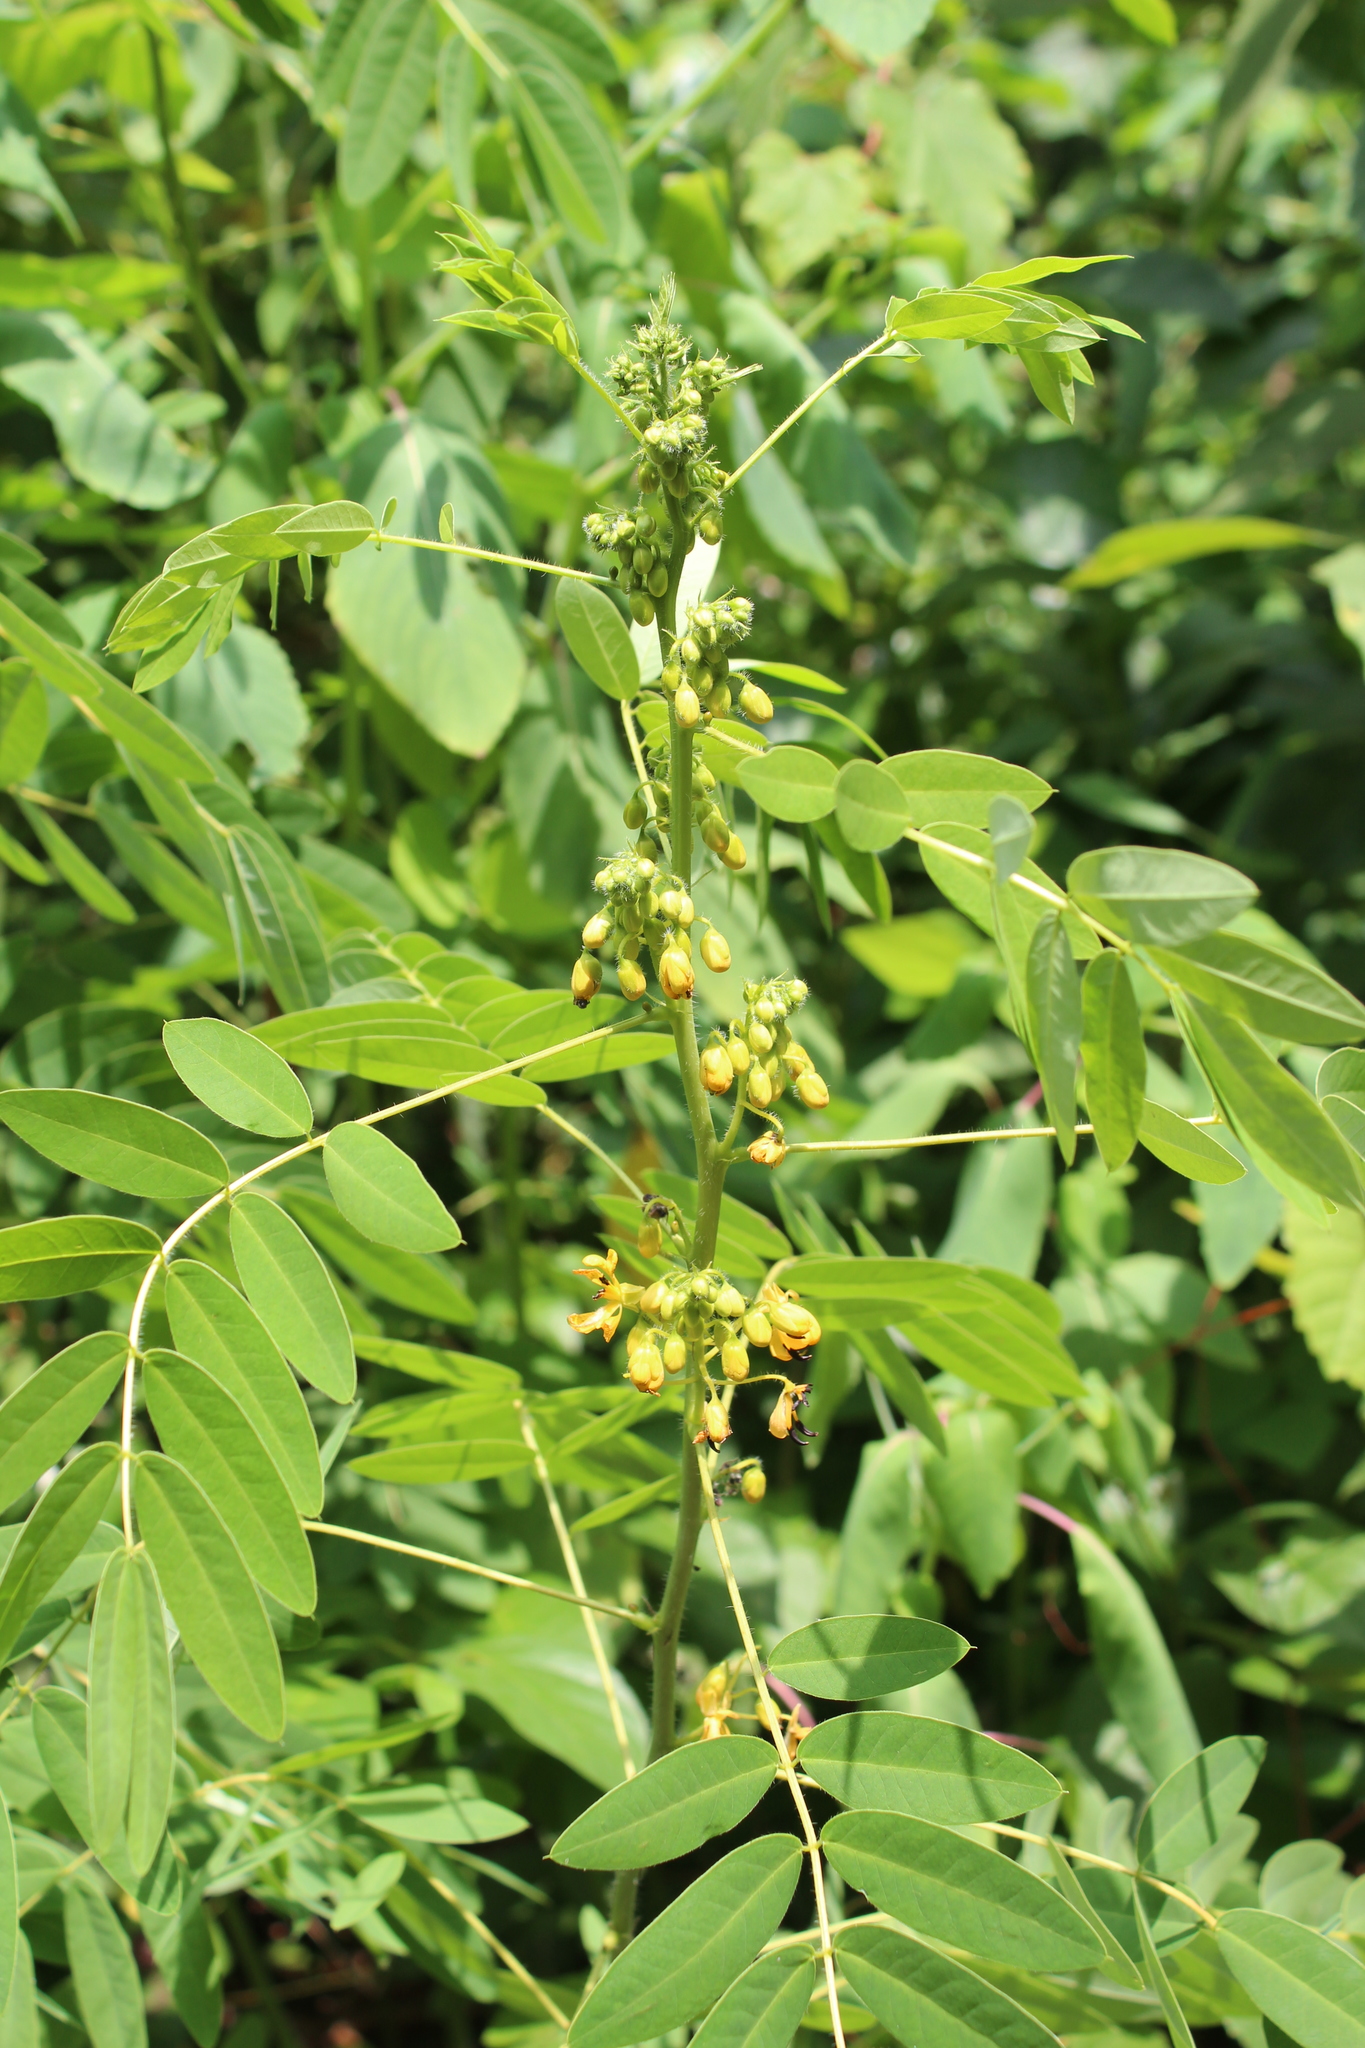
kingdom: Plantae
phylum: Tracheophyta
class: Magnoliopsida
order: Fabales
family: Fabaceae
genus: Senna
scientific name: Senna hebecarpa
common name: Wild senna
